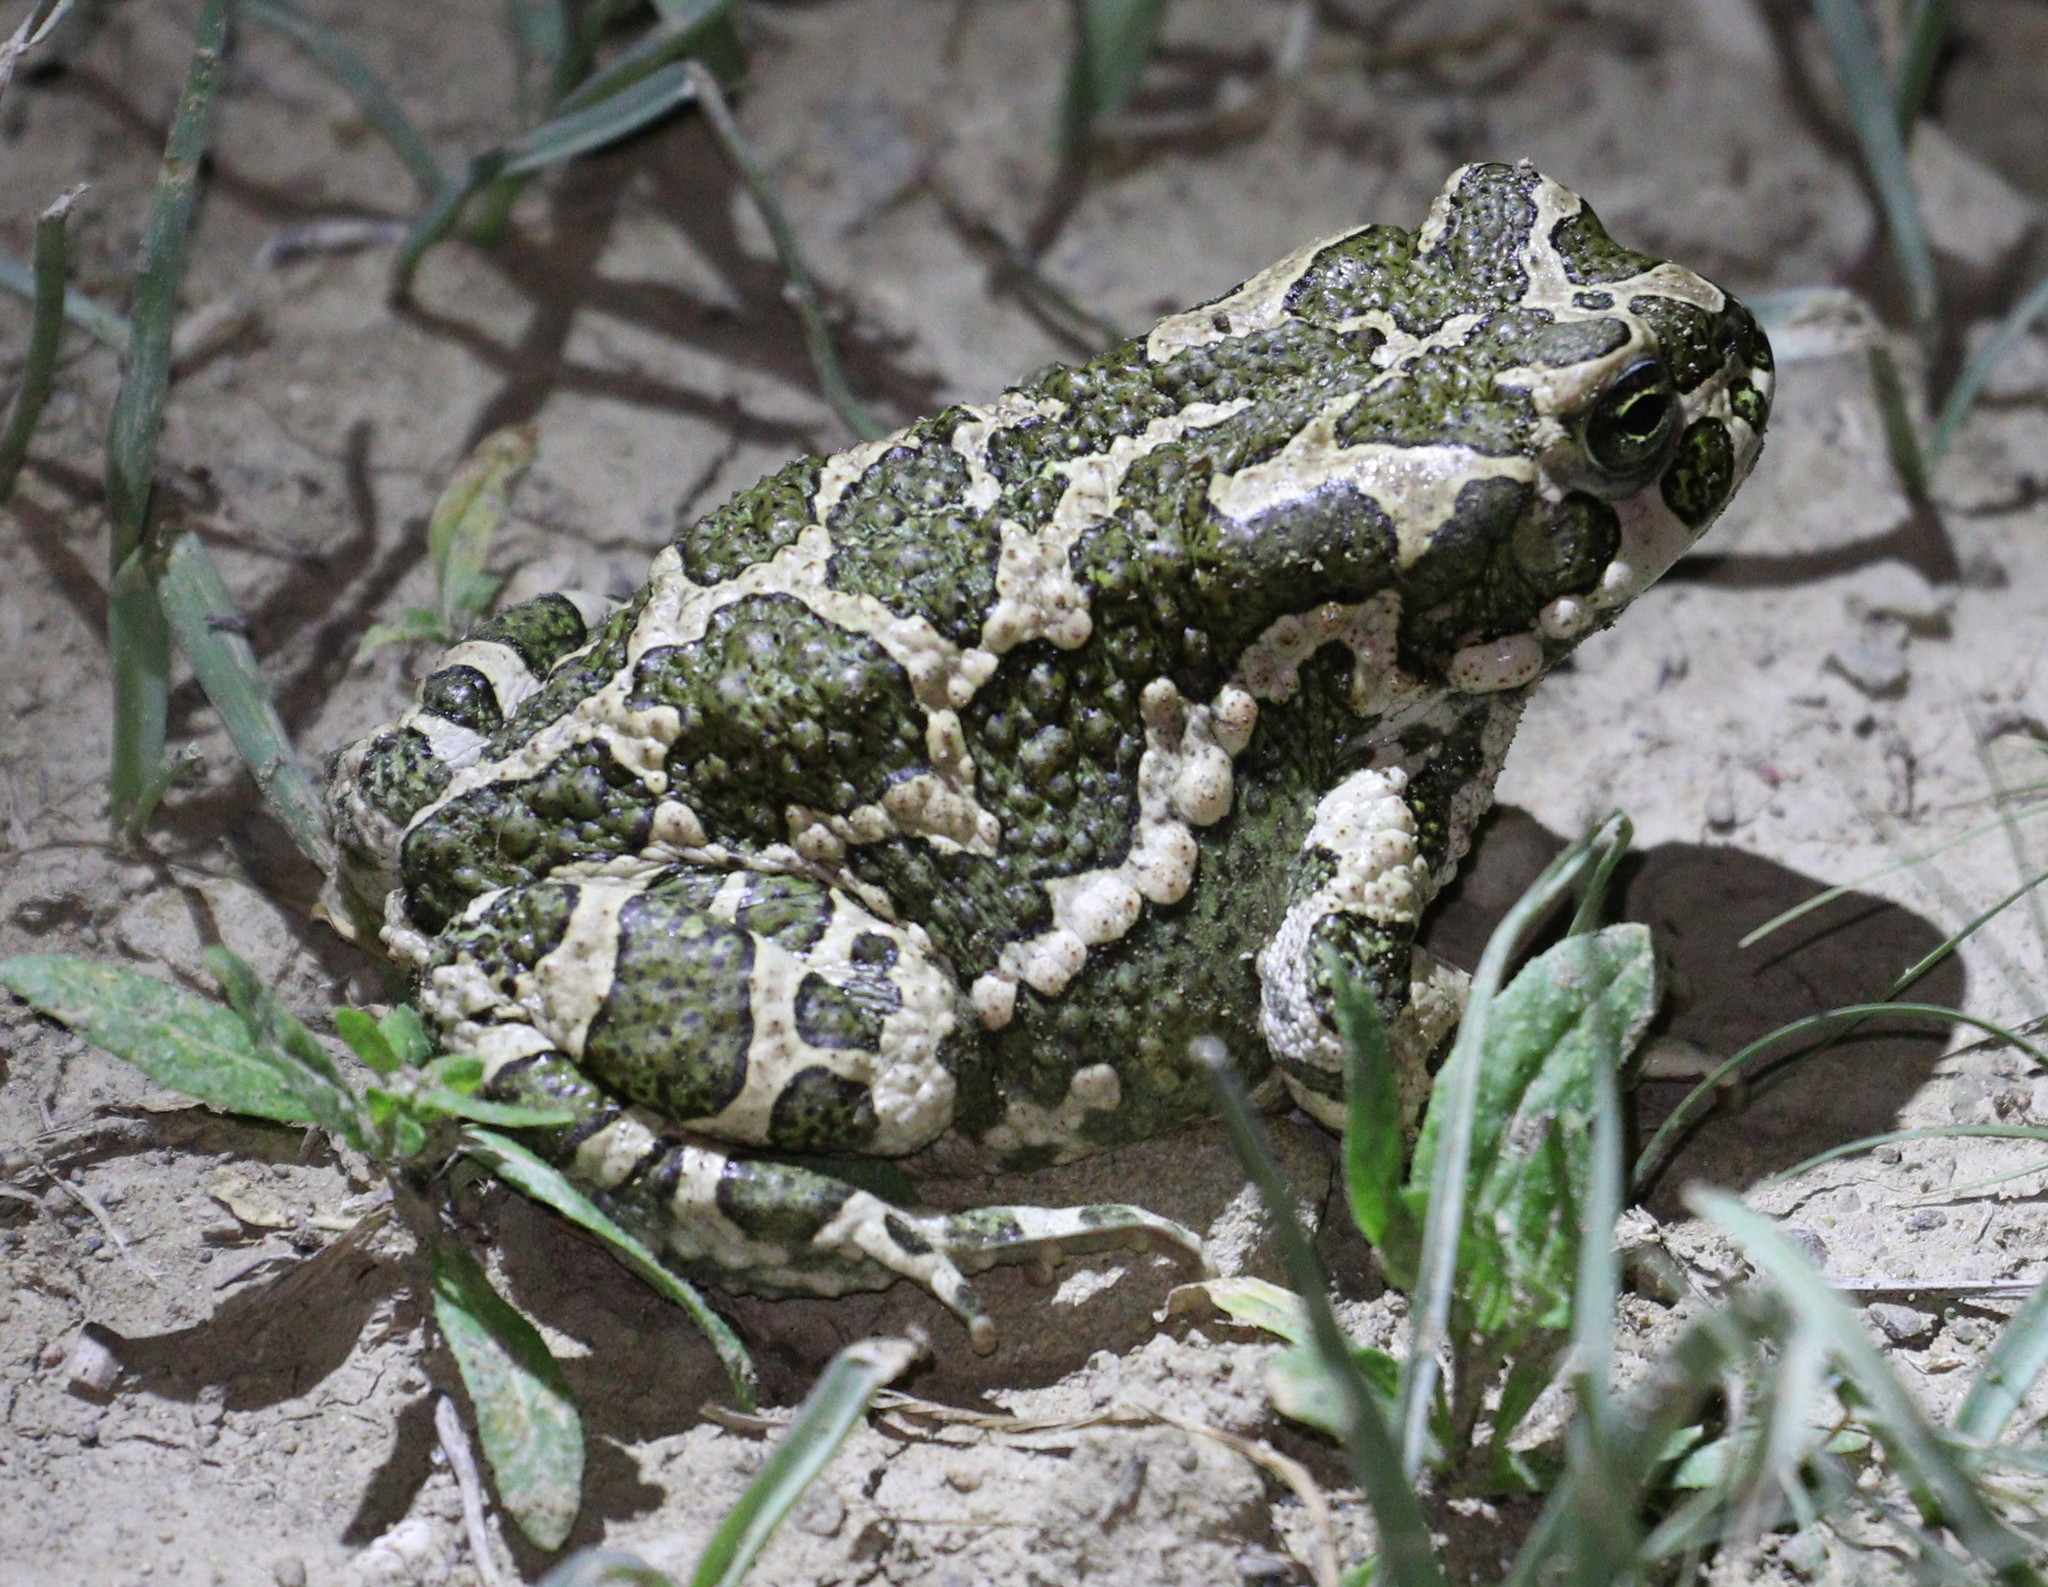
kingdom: Animalia
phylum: Chordata
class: Amphibia
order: Anura
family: Bufonidae
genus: Bufotes
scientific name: Bufotes viridis
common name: European green toad
